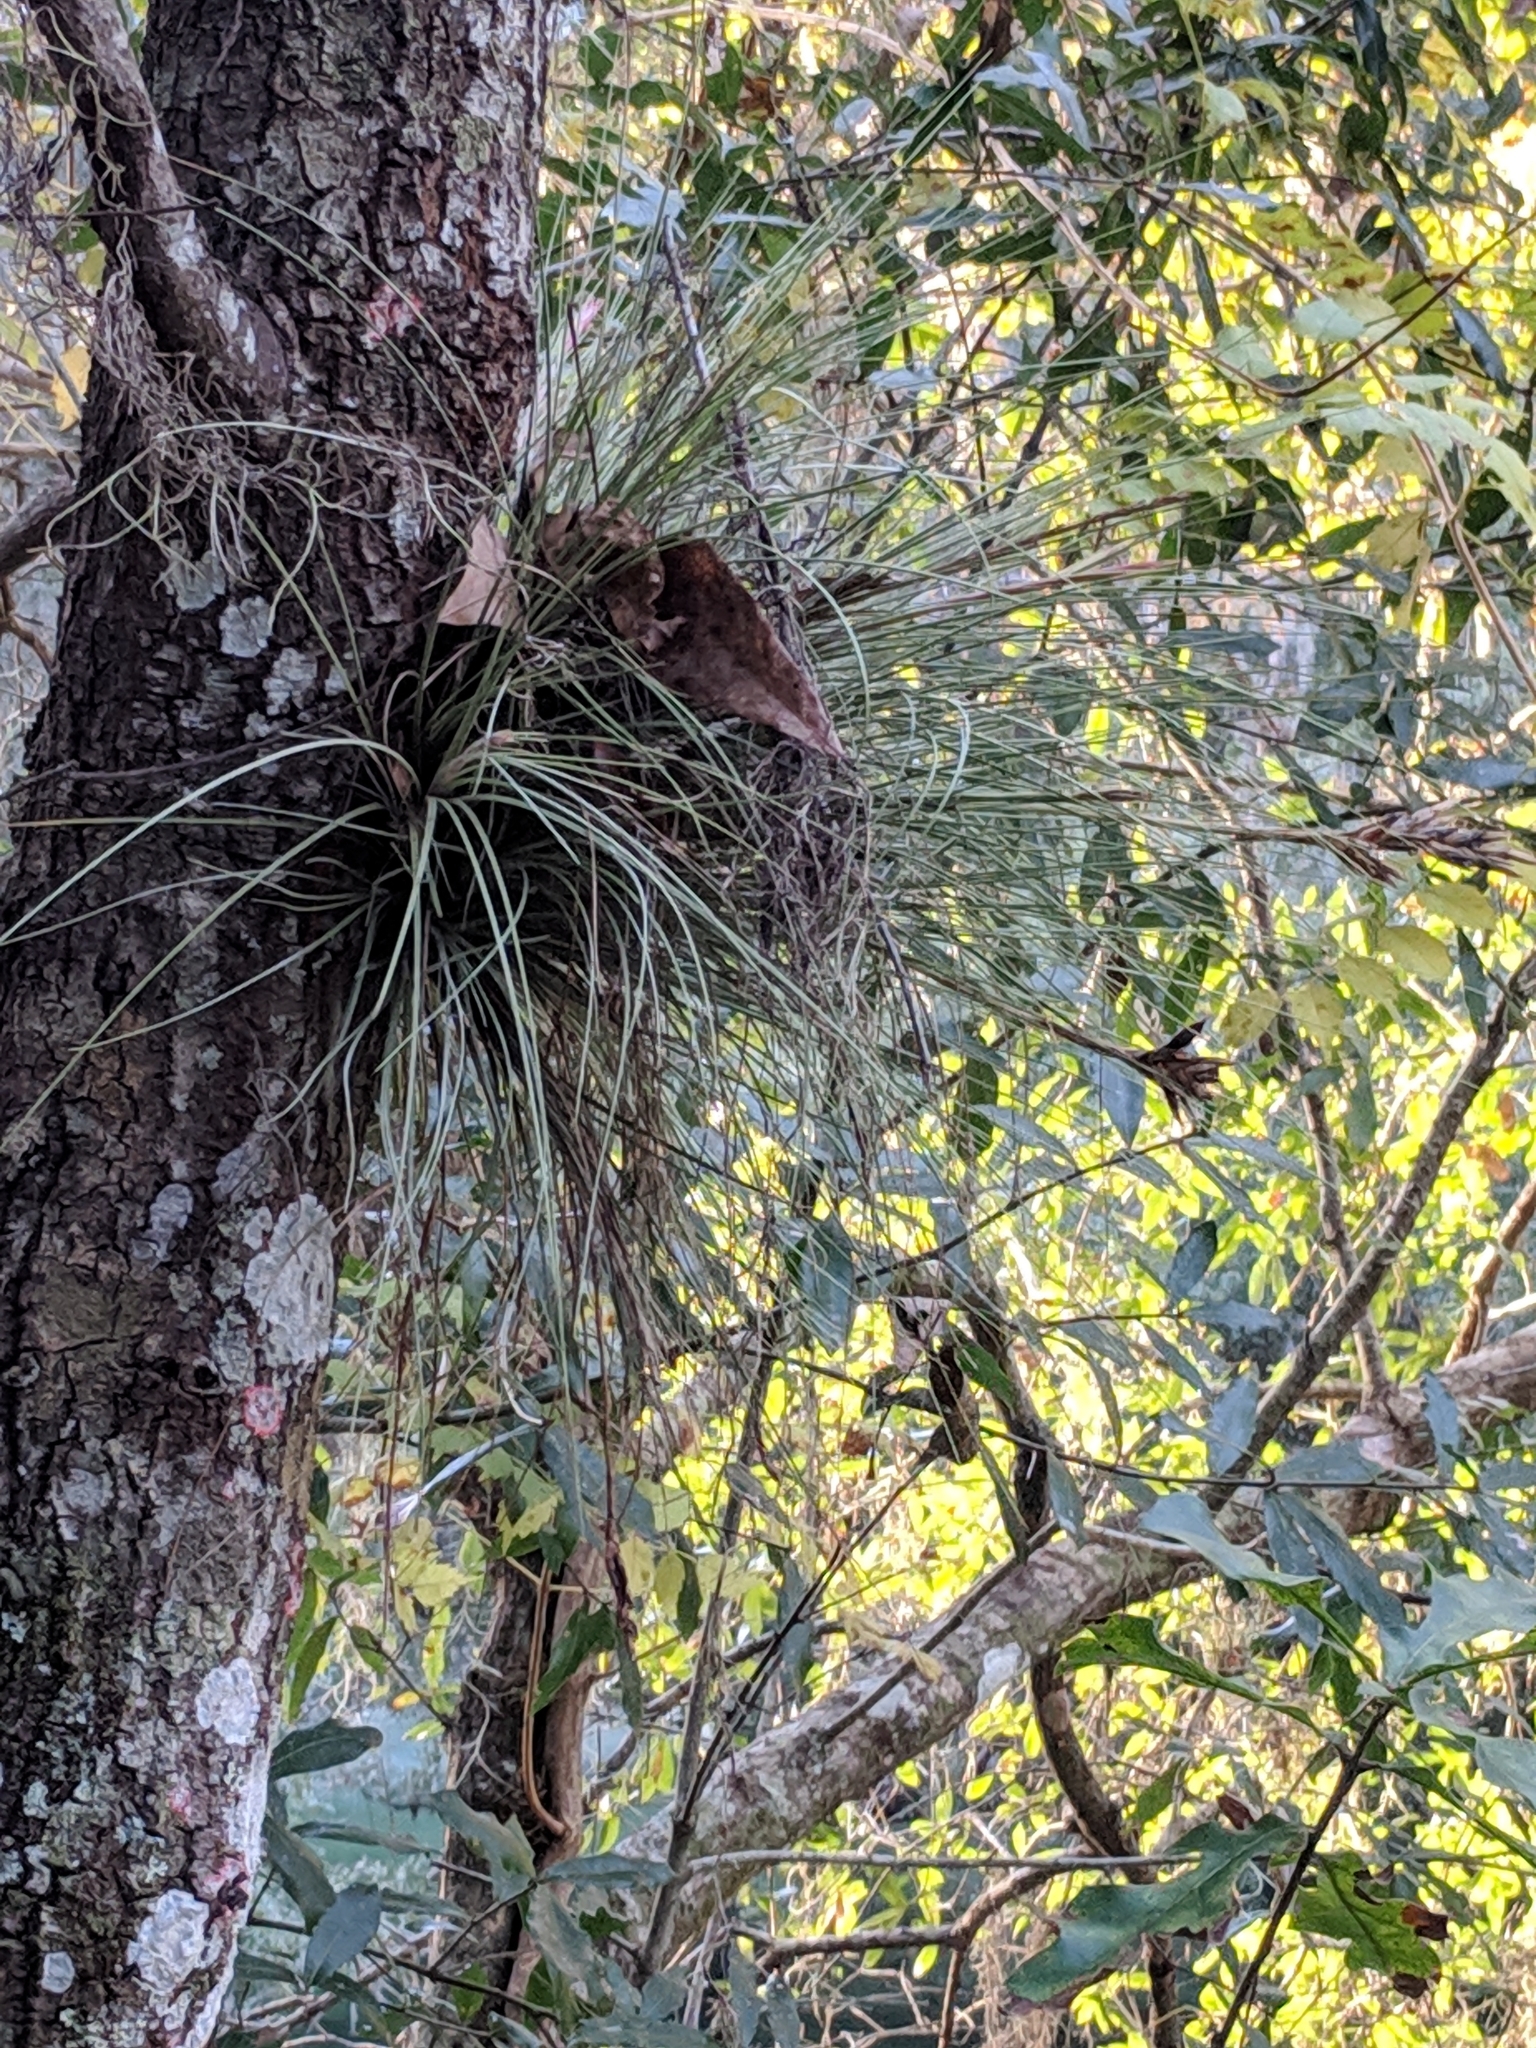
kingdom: Plantae
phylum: Tracheophyta
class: Liliopsida
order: Poales
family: Bromeliaceae
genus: Tillandsia
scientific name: Tillandsia bartramii
